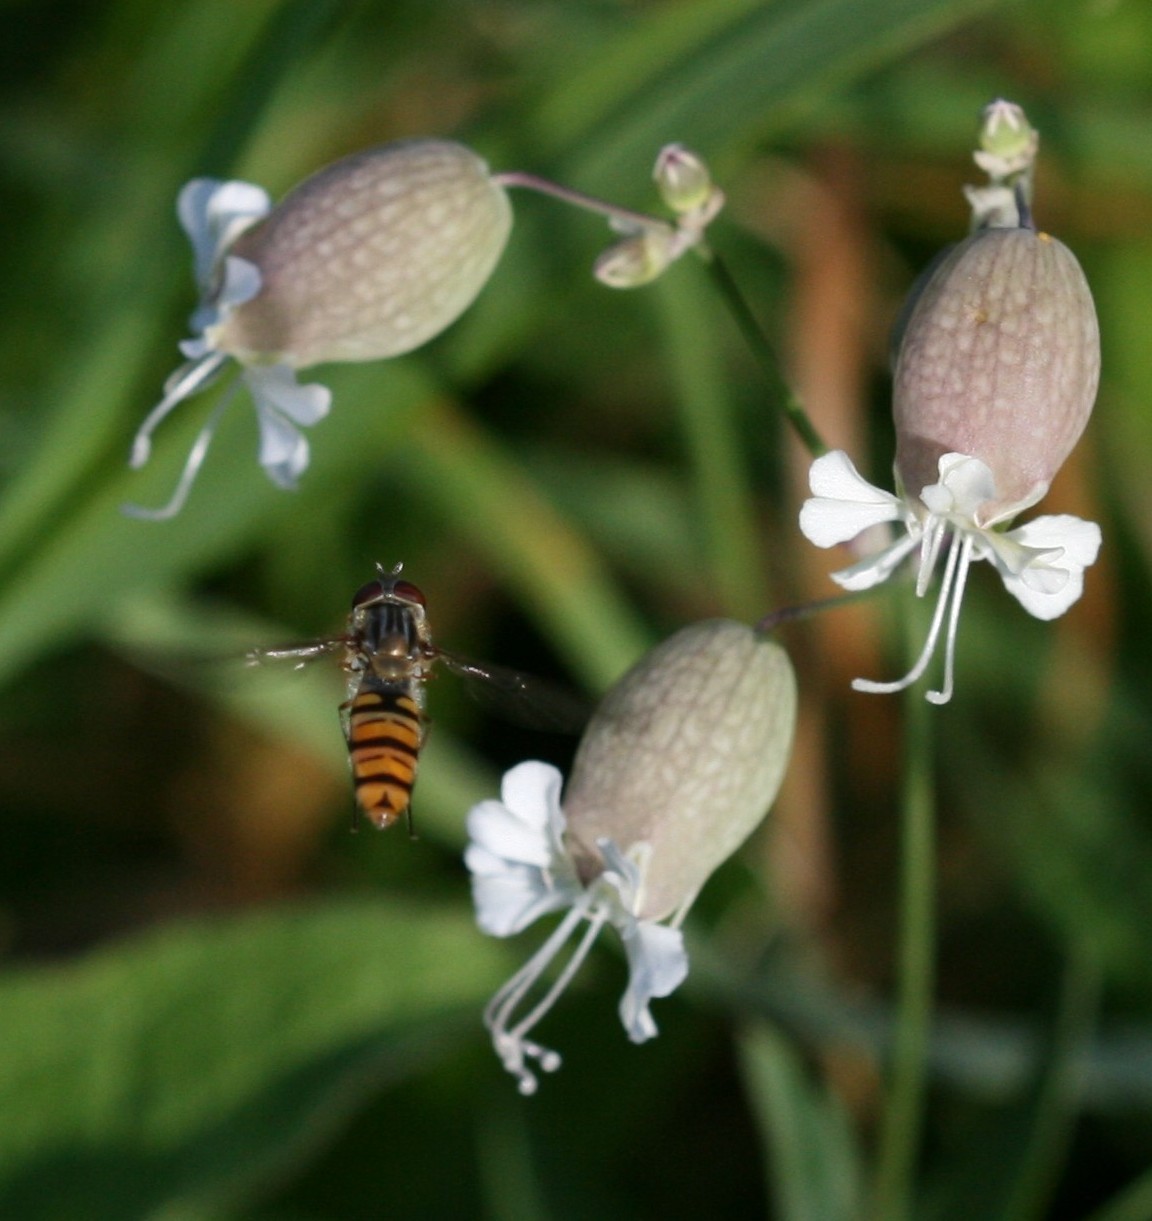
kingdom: Animalia
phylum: Arthropoda
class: Insecta
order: Diptera
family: Syrphidae
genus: Episyrphus
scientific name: Episyrphus balteatus
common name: Marmalade hoverfly
